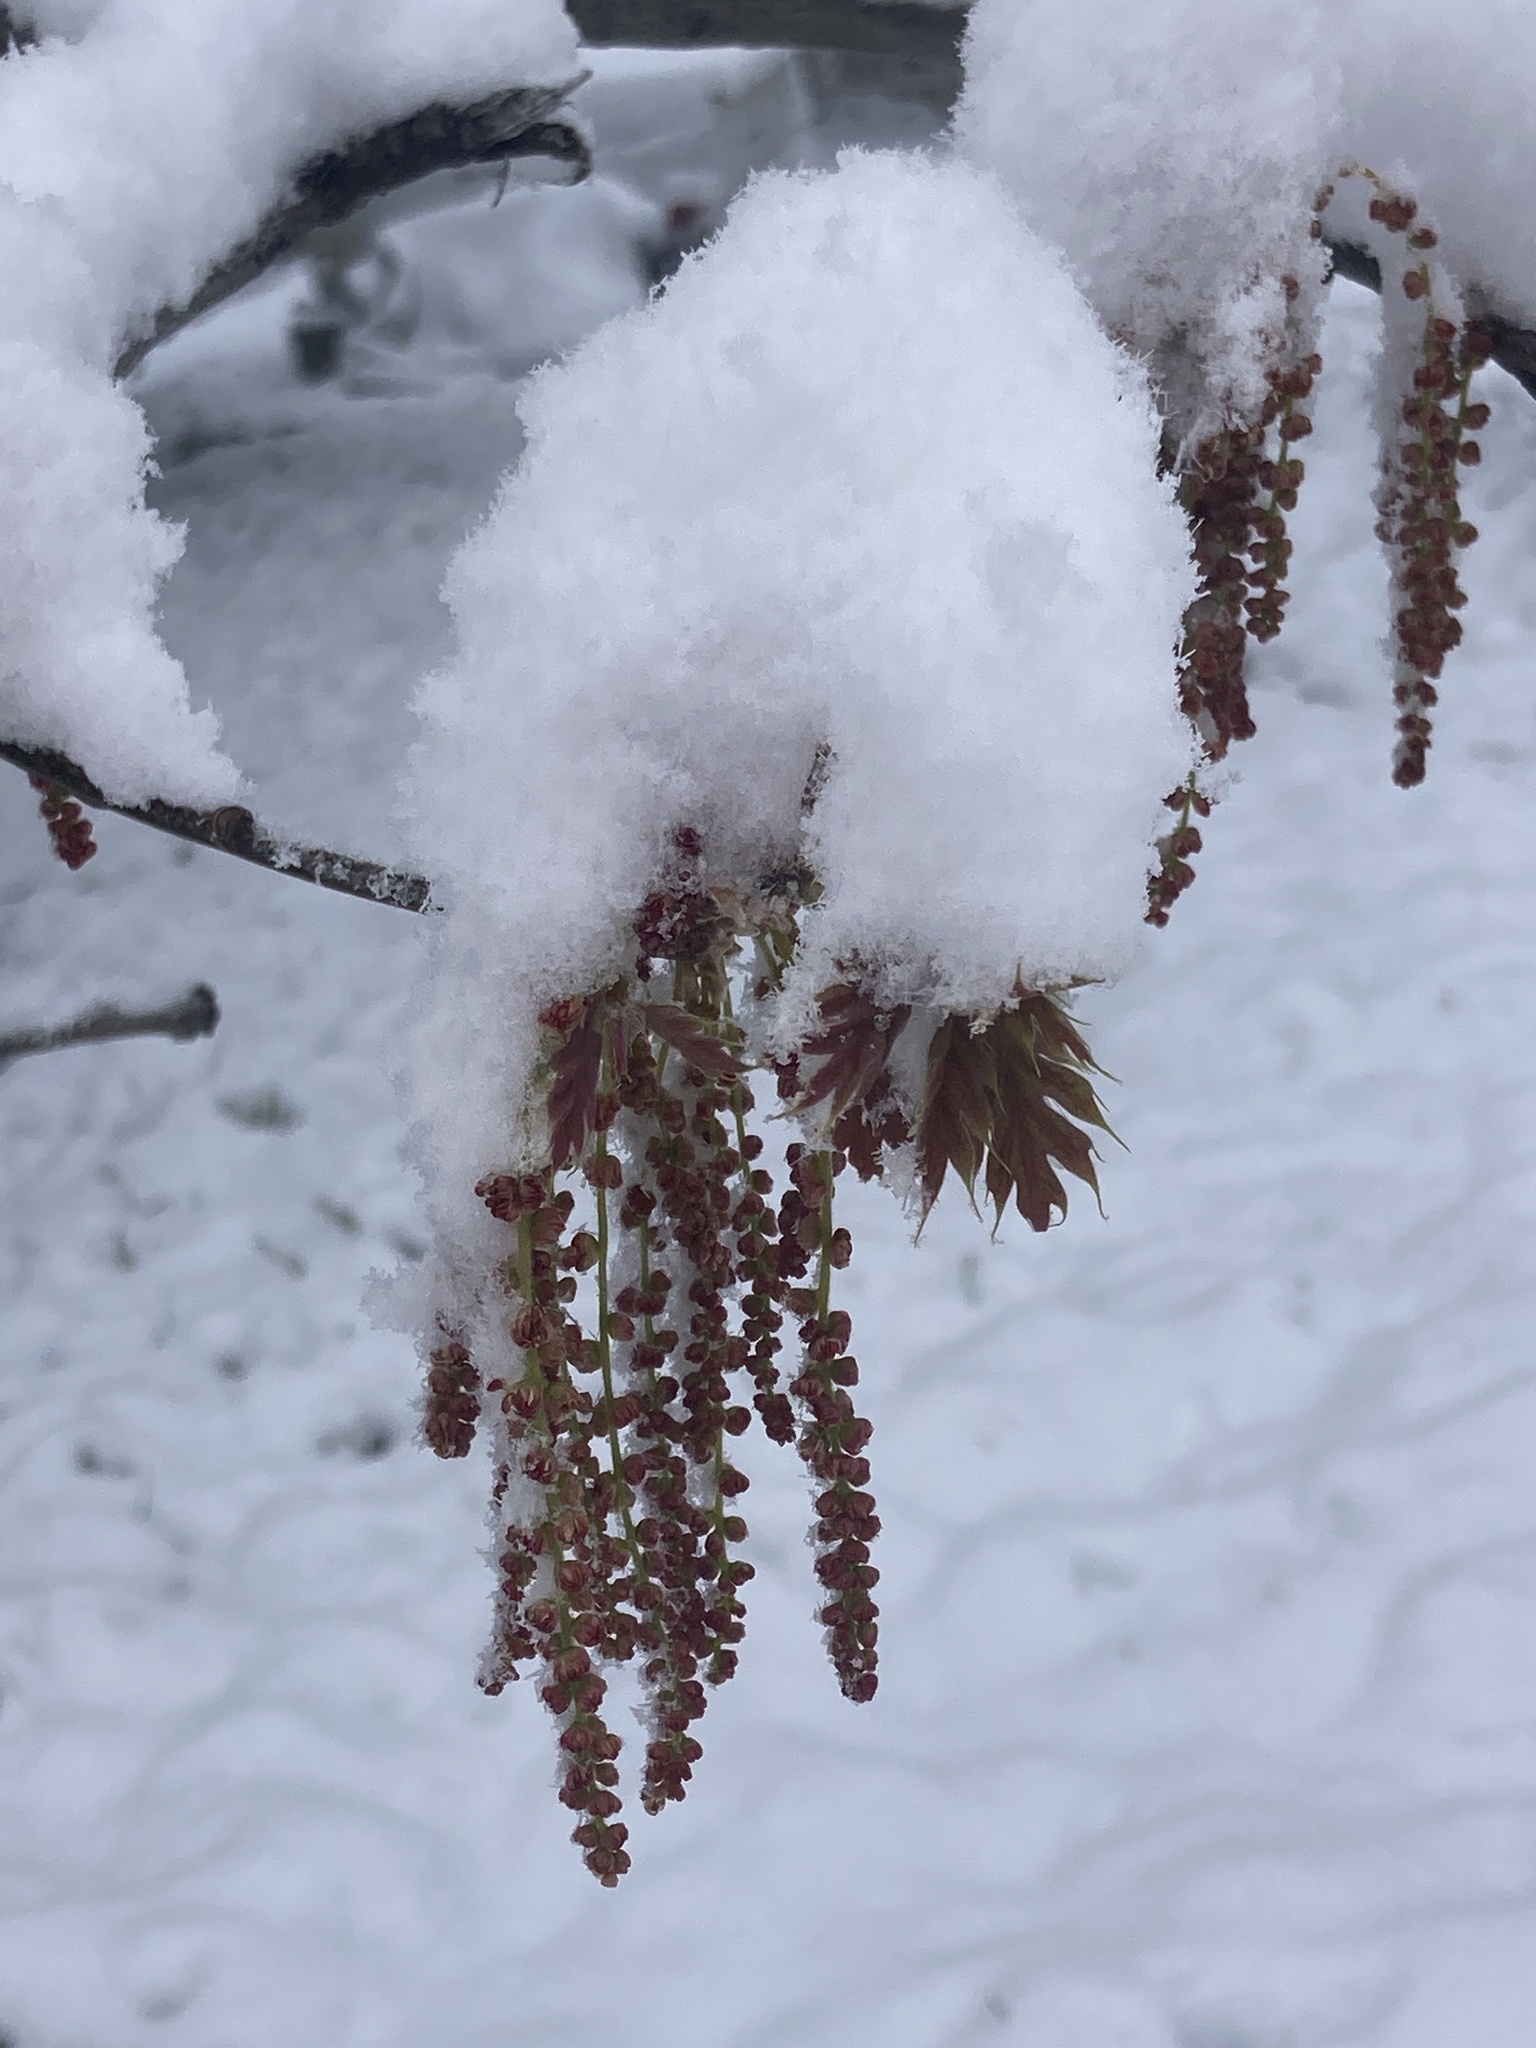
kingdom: Plantae
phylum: Tracheophyta
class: Magnoliopsida
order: Fagales
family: Fagaceae
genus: Quercus
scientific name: Quercus kelloggii
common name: California black oak
